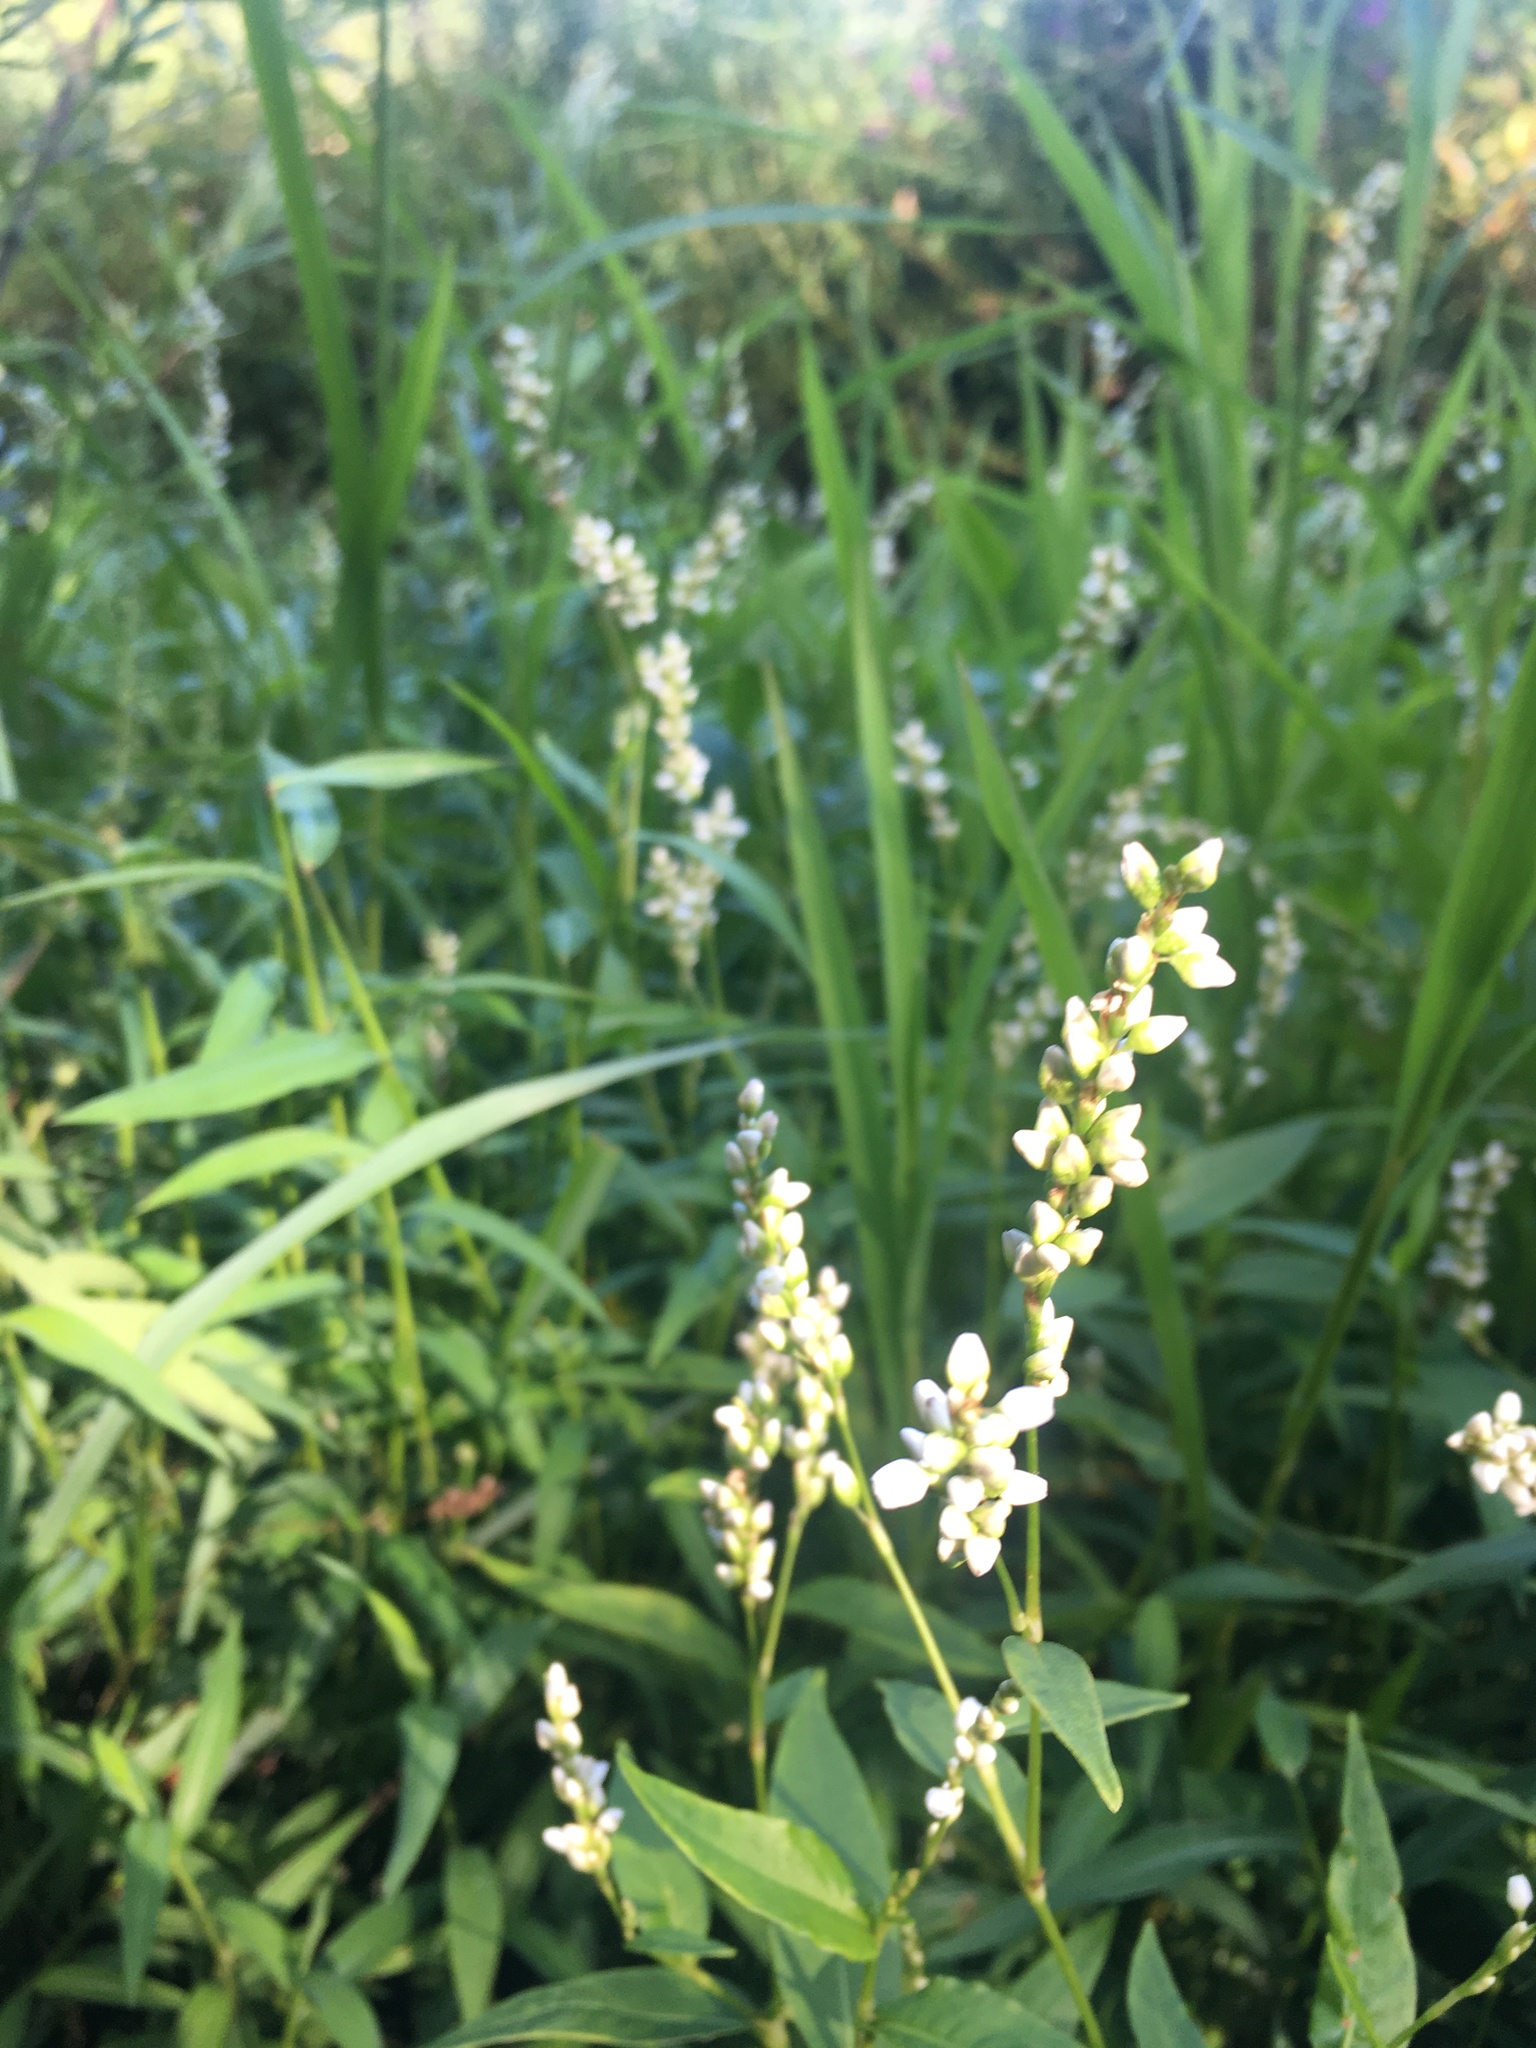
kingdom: Plantae
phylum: Tracheophyta
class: Magnoliopsida
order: Caryophyllales
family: Polygonaceae
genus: Persicaria
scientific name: Persicaria punctata
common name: Dotted smartweed
